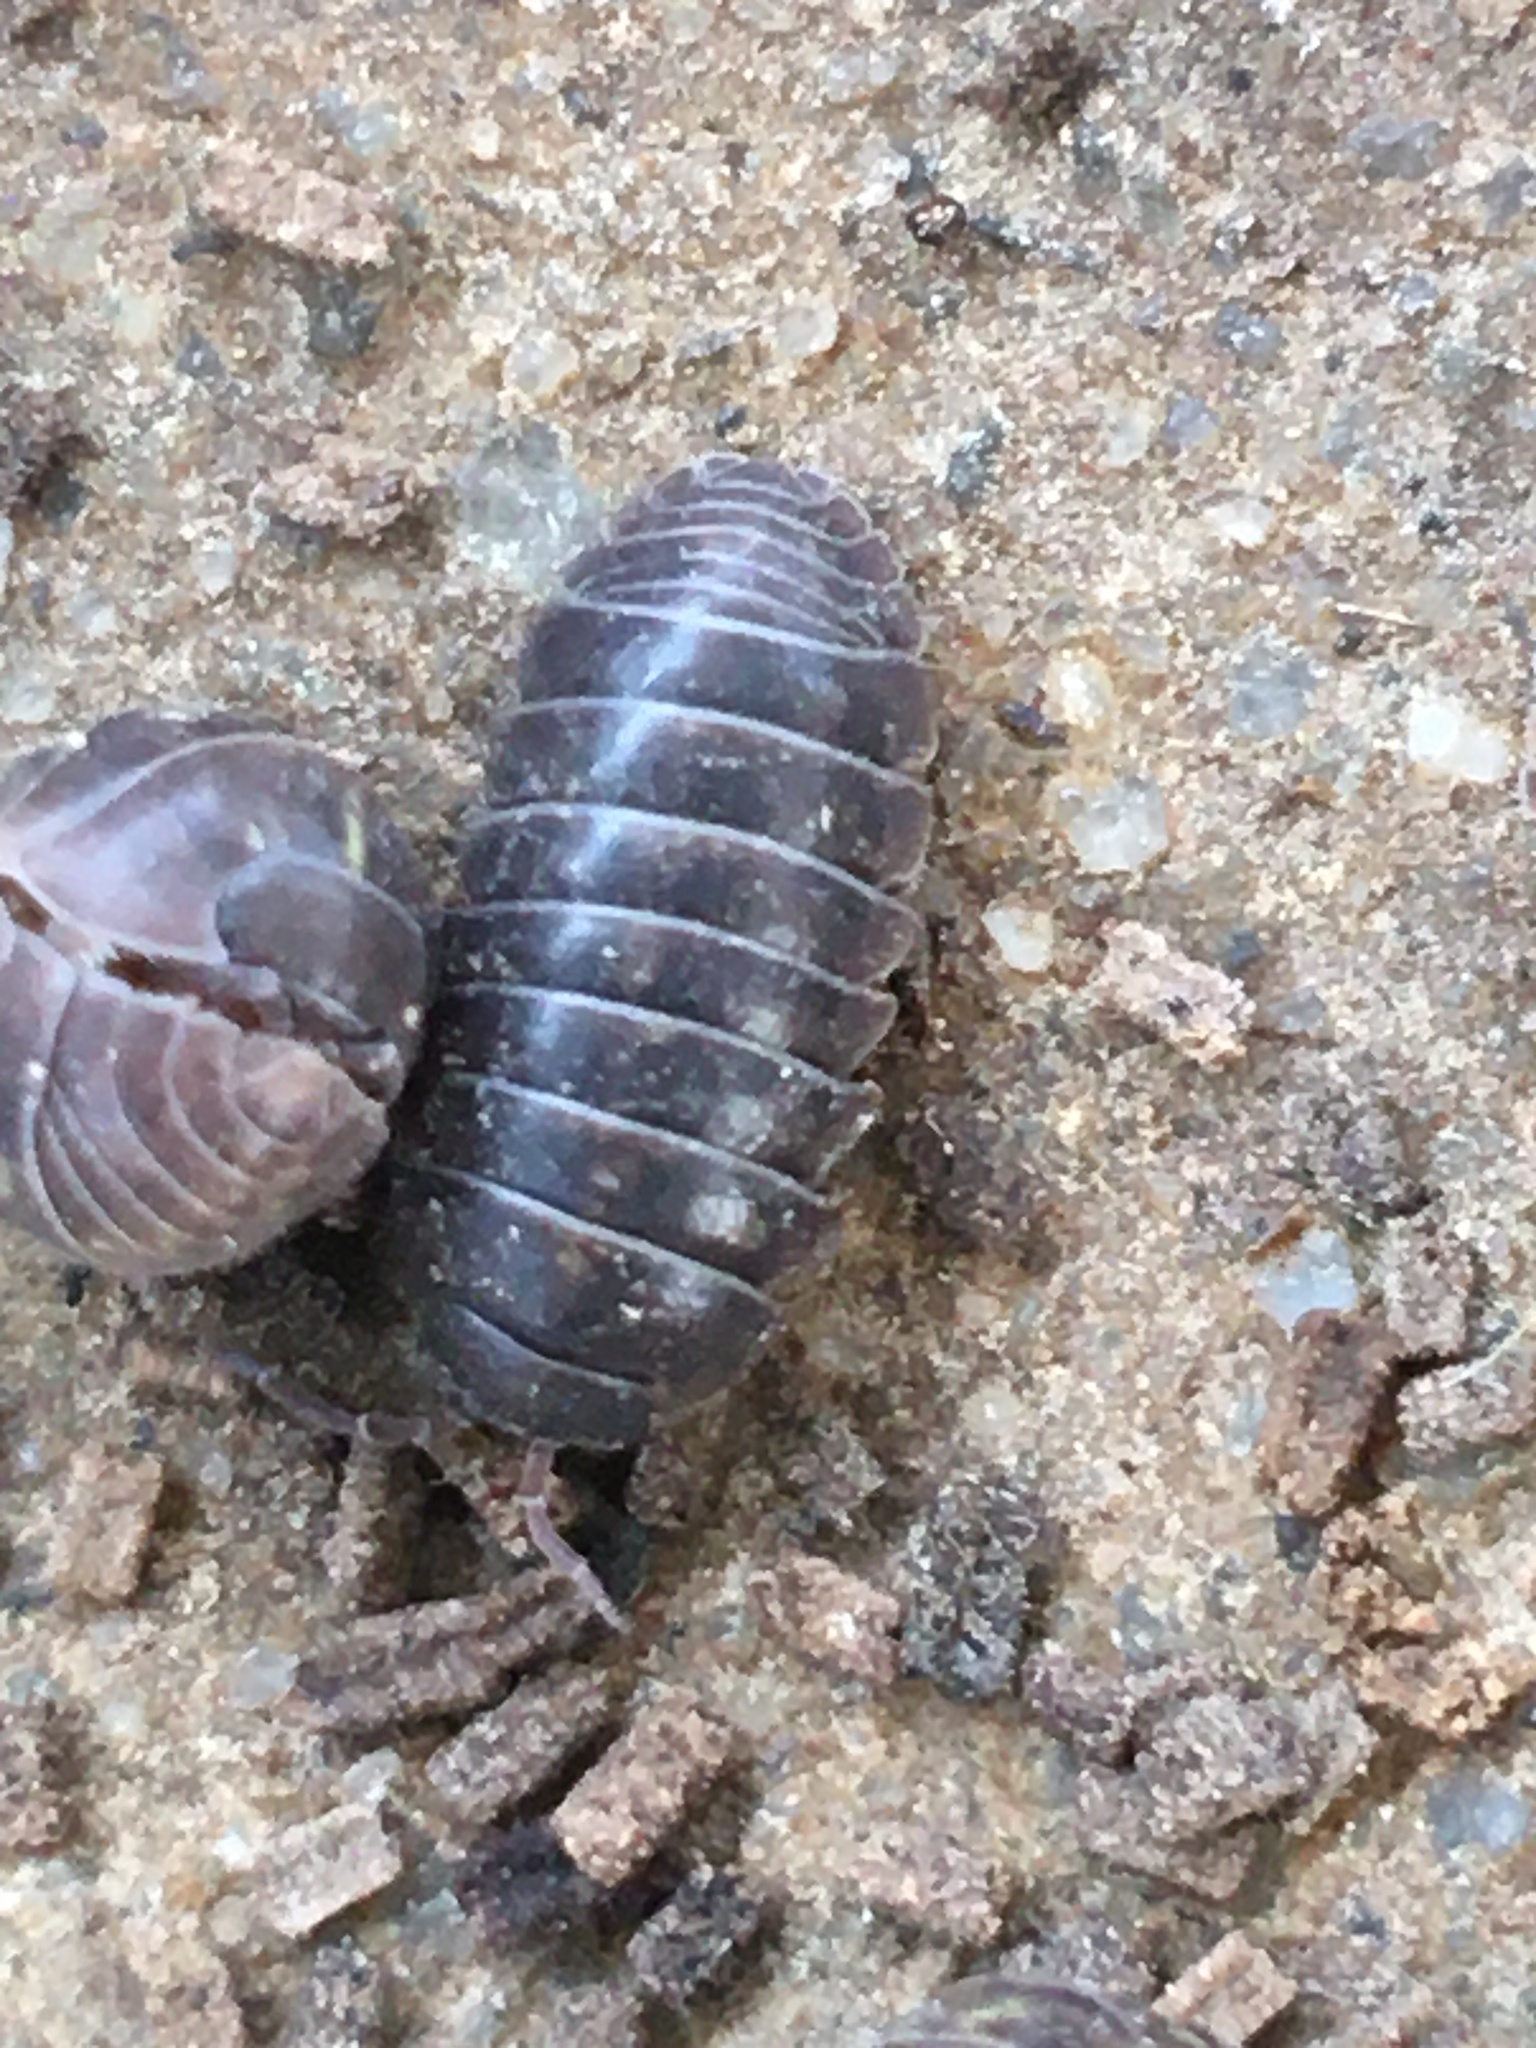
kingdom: Animalia
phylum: Arthropoda
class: Malacostraca
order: Isopoda
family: Armadillidiidae
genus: Armadillidium
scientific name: Armadillidium vulgare
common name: Common pill woodlouse
